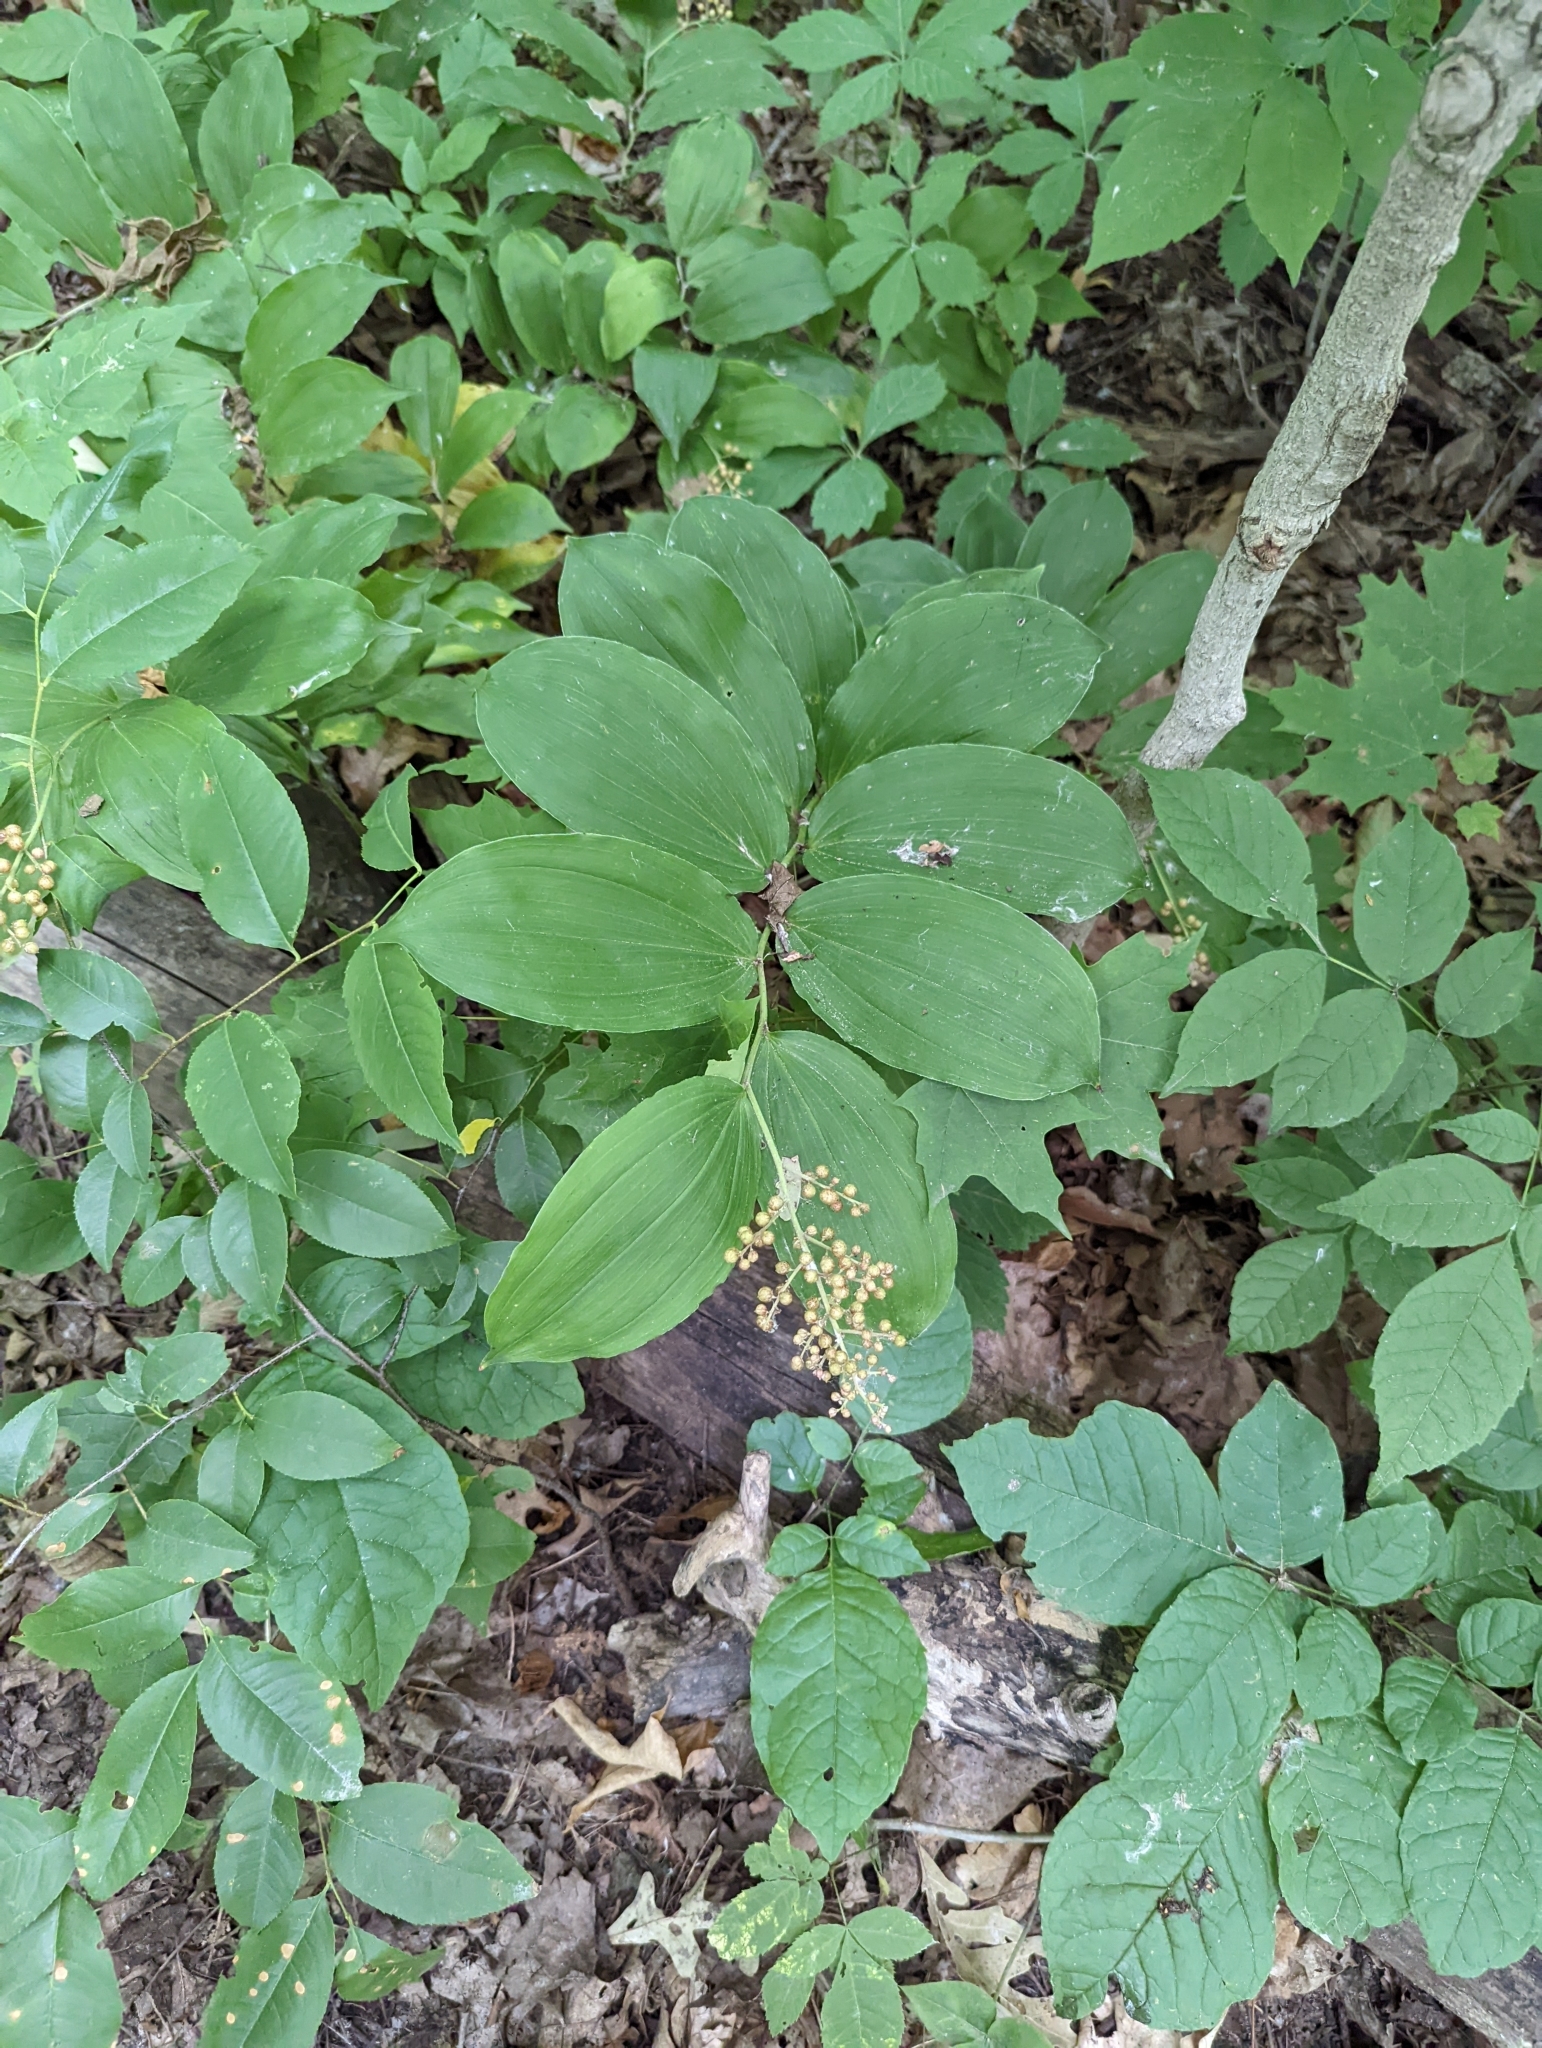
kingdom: Plantae
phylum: Tracheophyta
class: Liliopsida
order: Asparagales
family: Asparagaceae
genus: Maianthemum
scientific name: Maianthemum racemosum
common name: False spikenard
